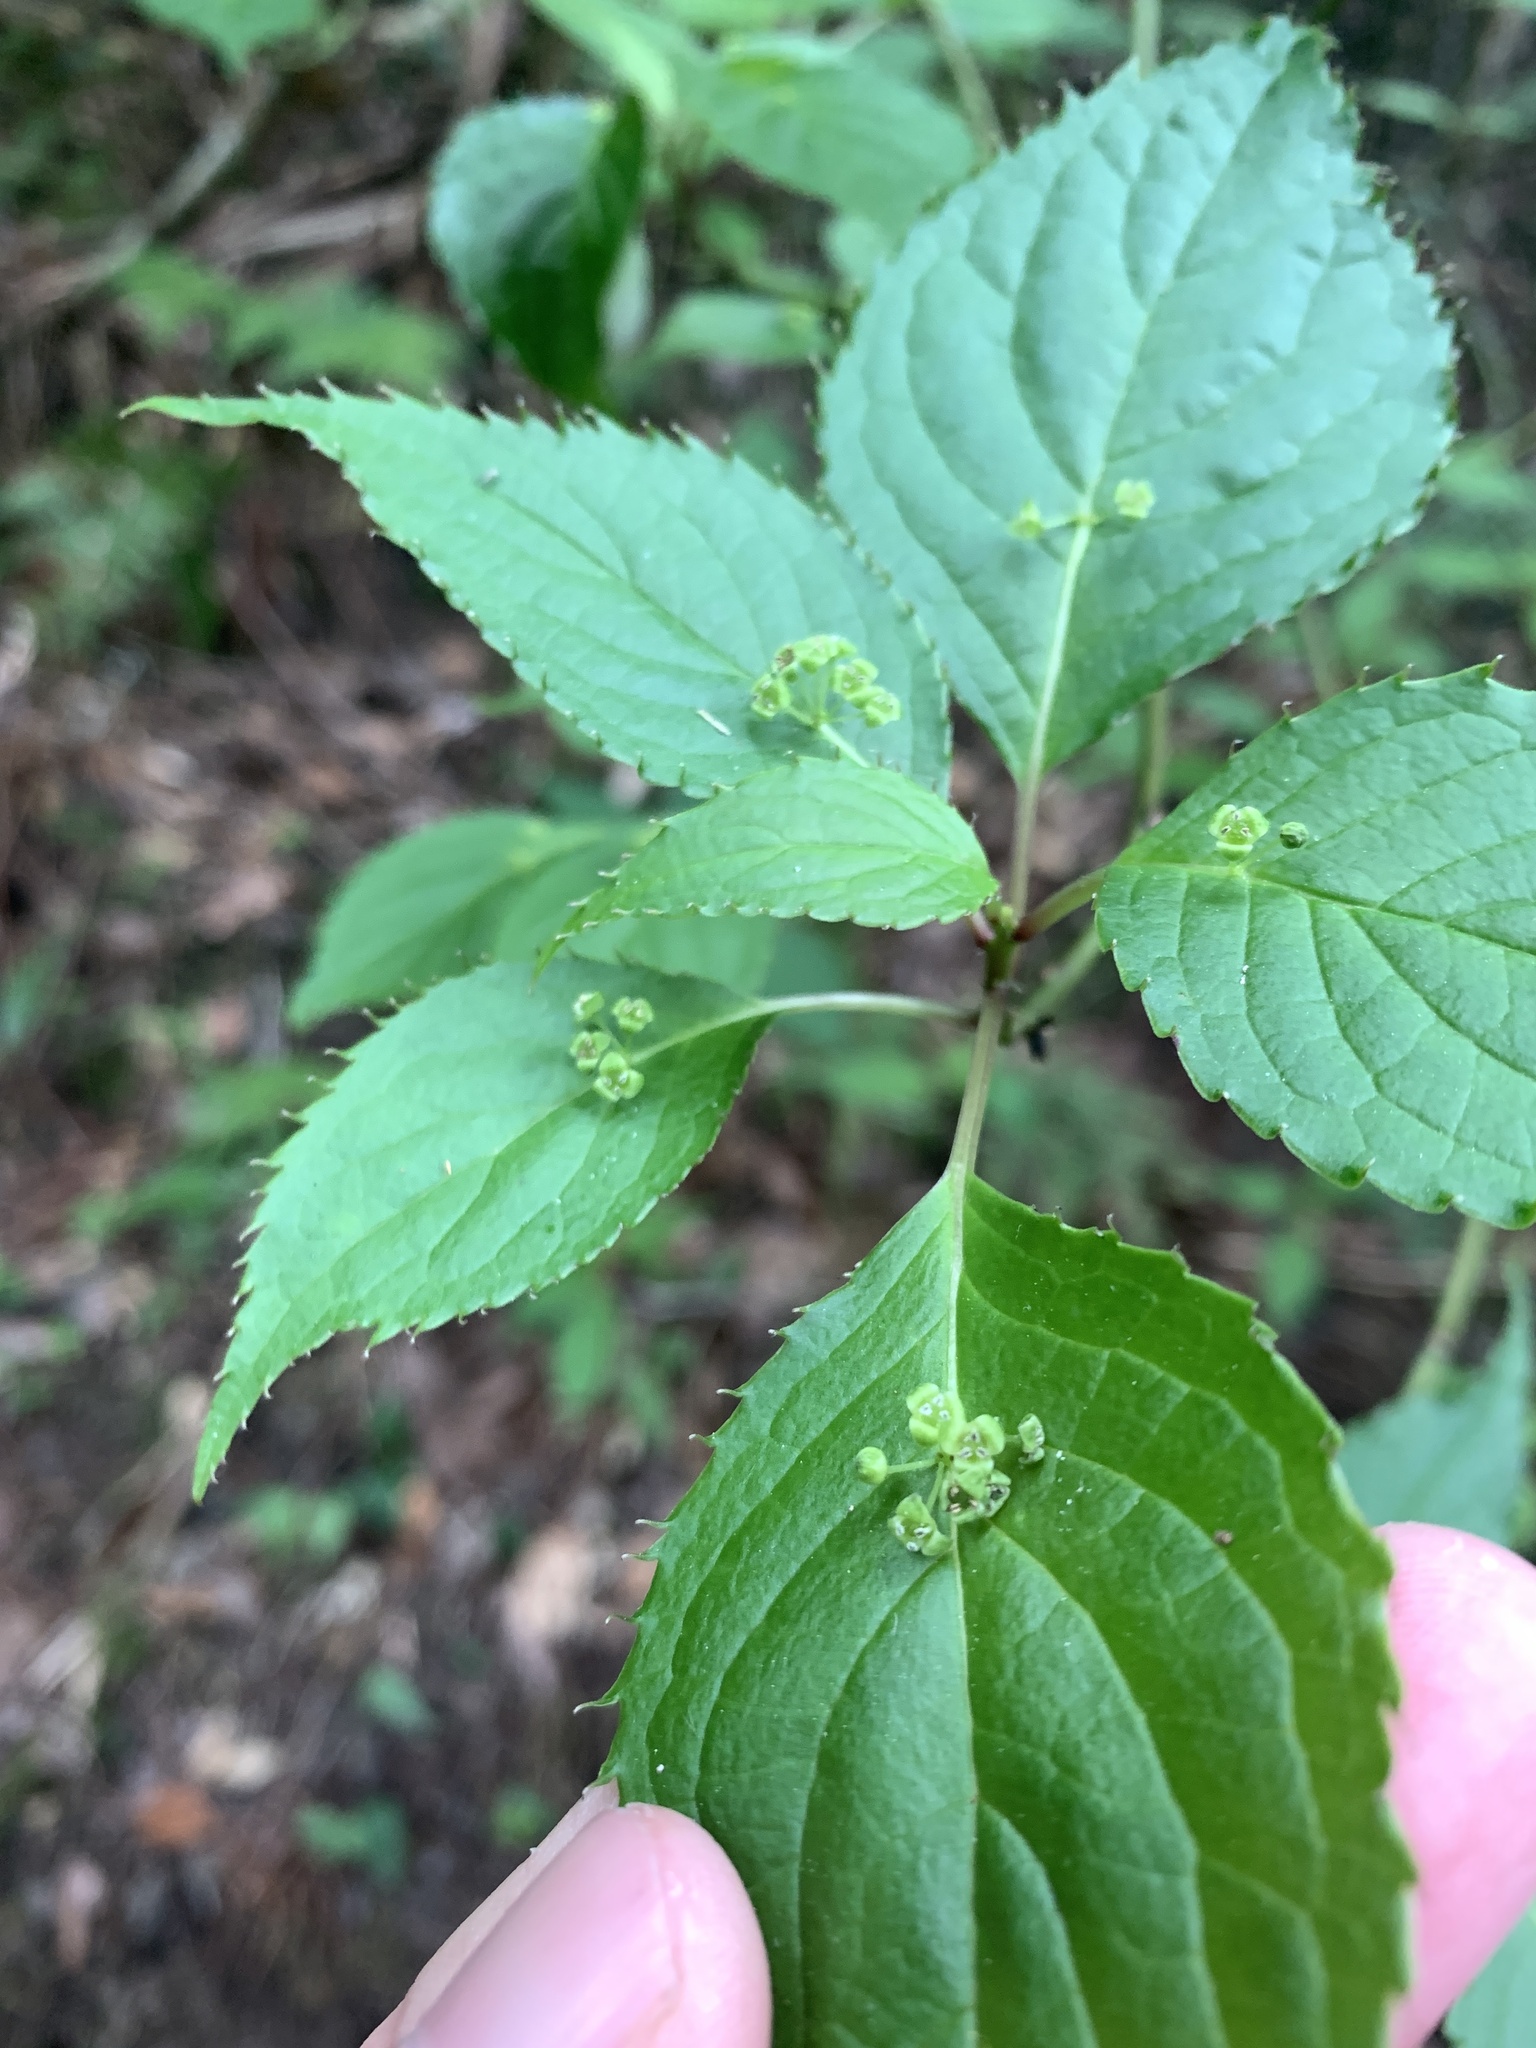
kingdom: Plantae
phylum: Tracheophyta
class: Magnoliopsida
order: Aquifoliales
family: Helwingiaceae
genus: Helwingia
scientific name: Helwingia japonica
